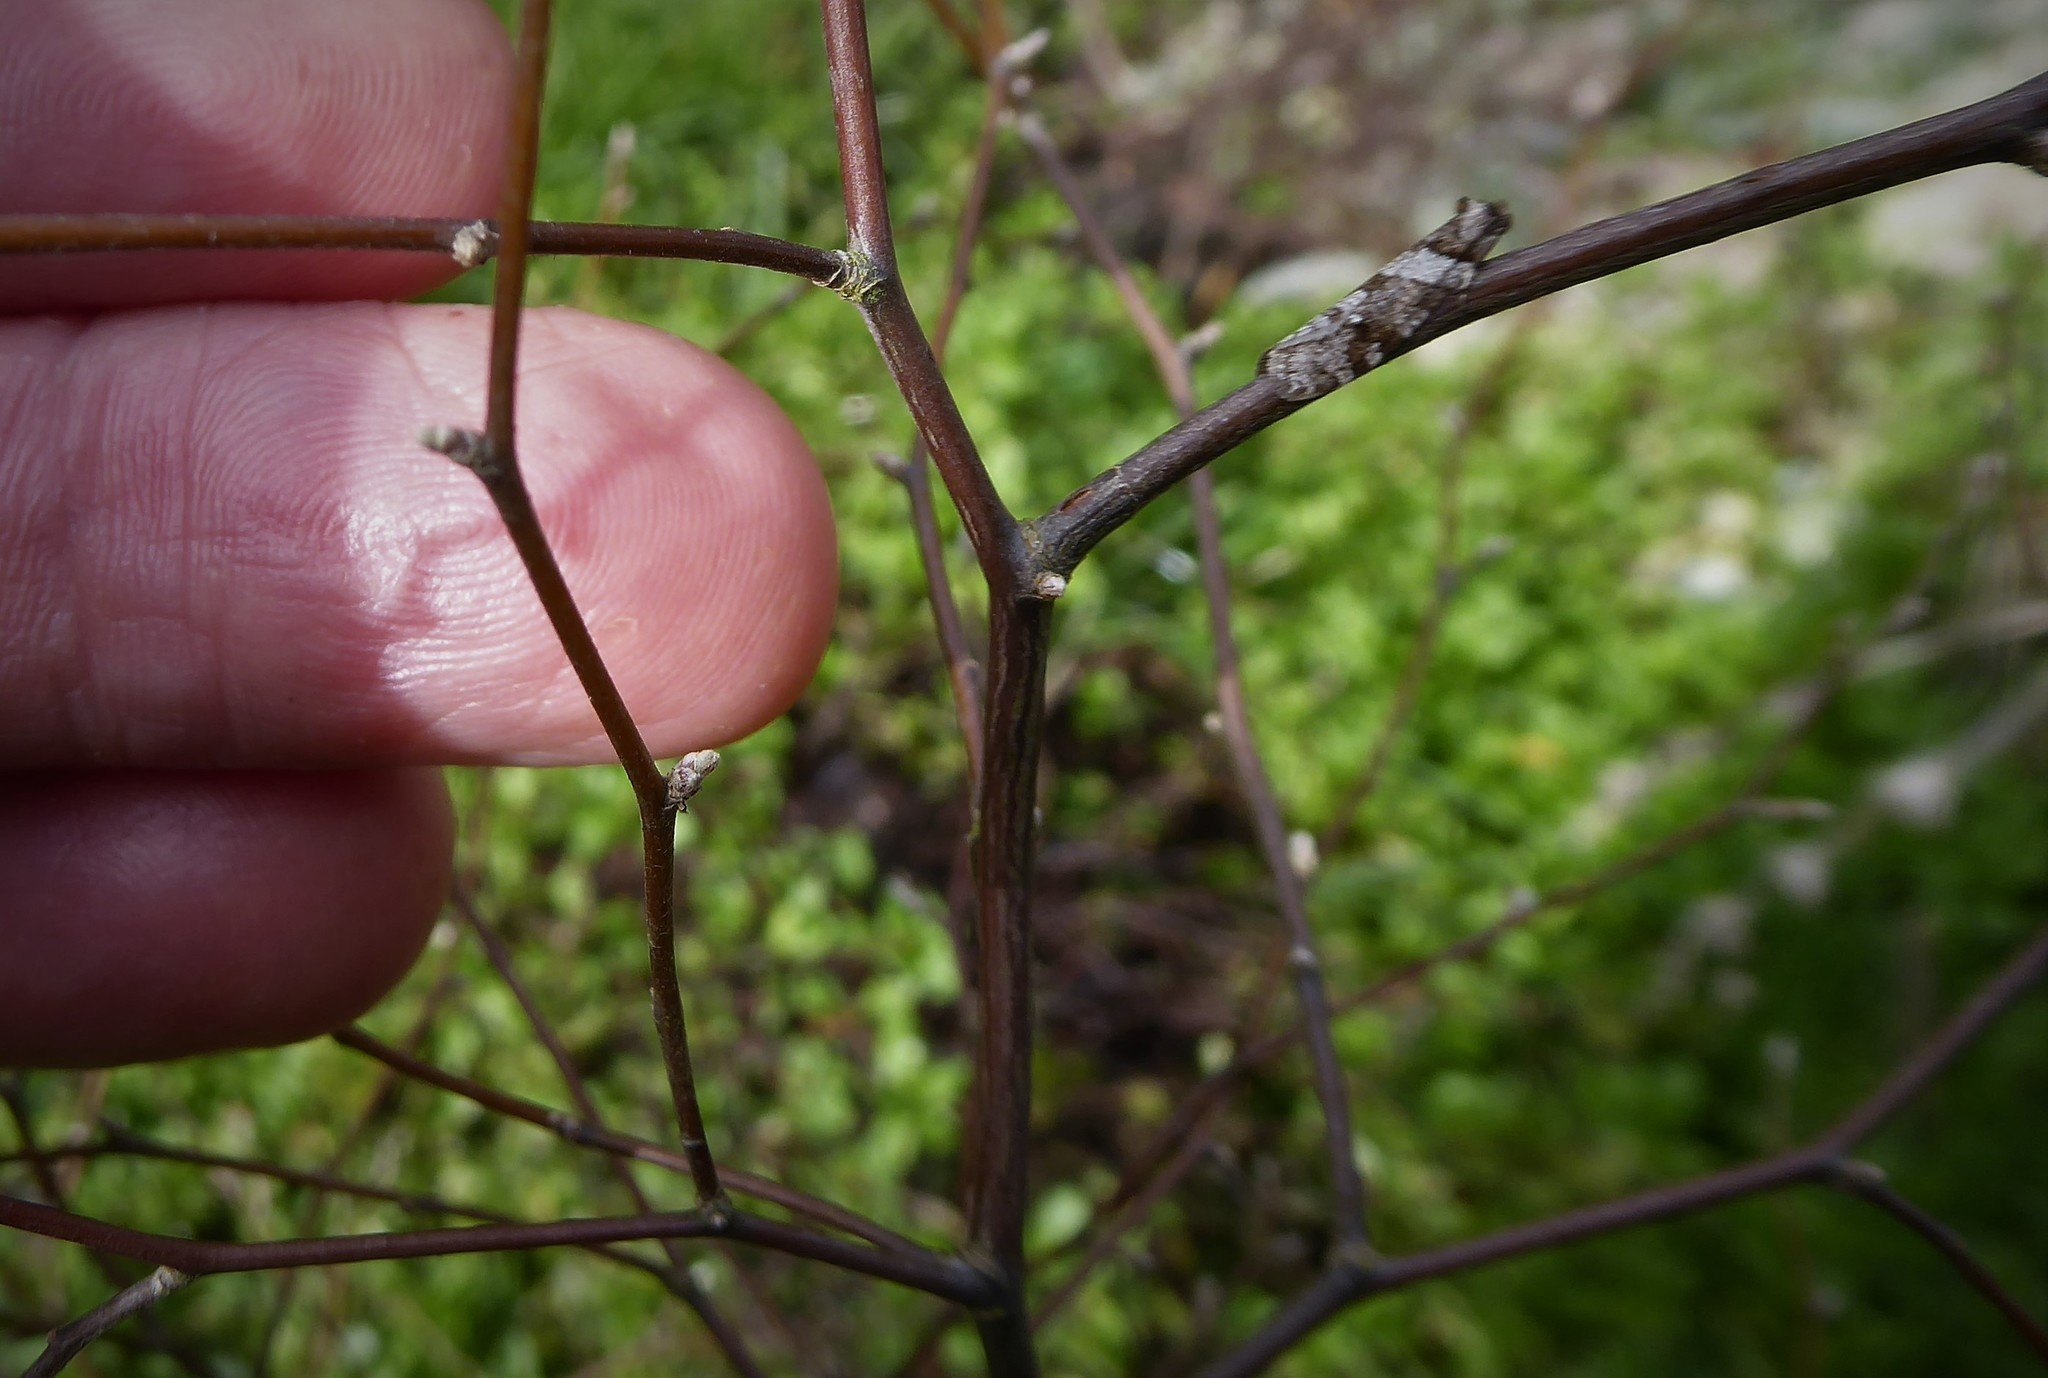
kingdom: Animalia
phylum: Arthropoda
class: Insecta
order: Lepidoptera
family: Psychidae
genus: Lepidoscia
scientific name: Lepidoscia heliochares
